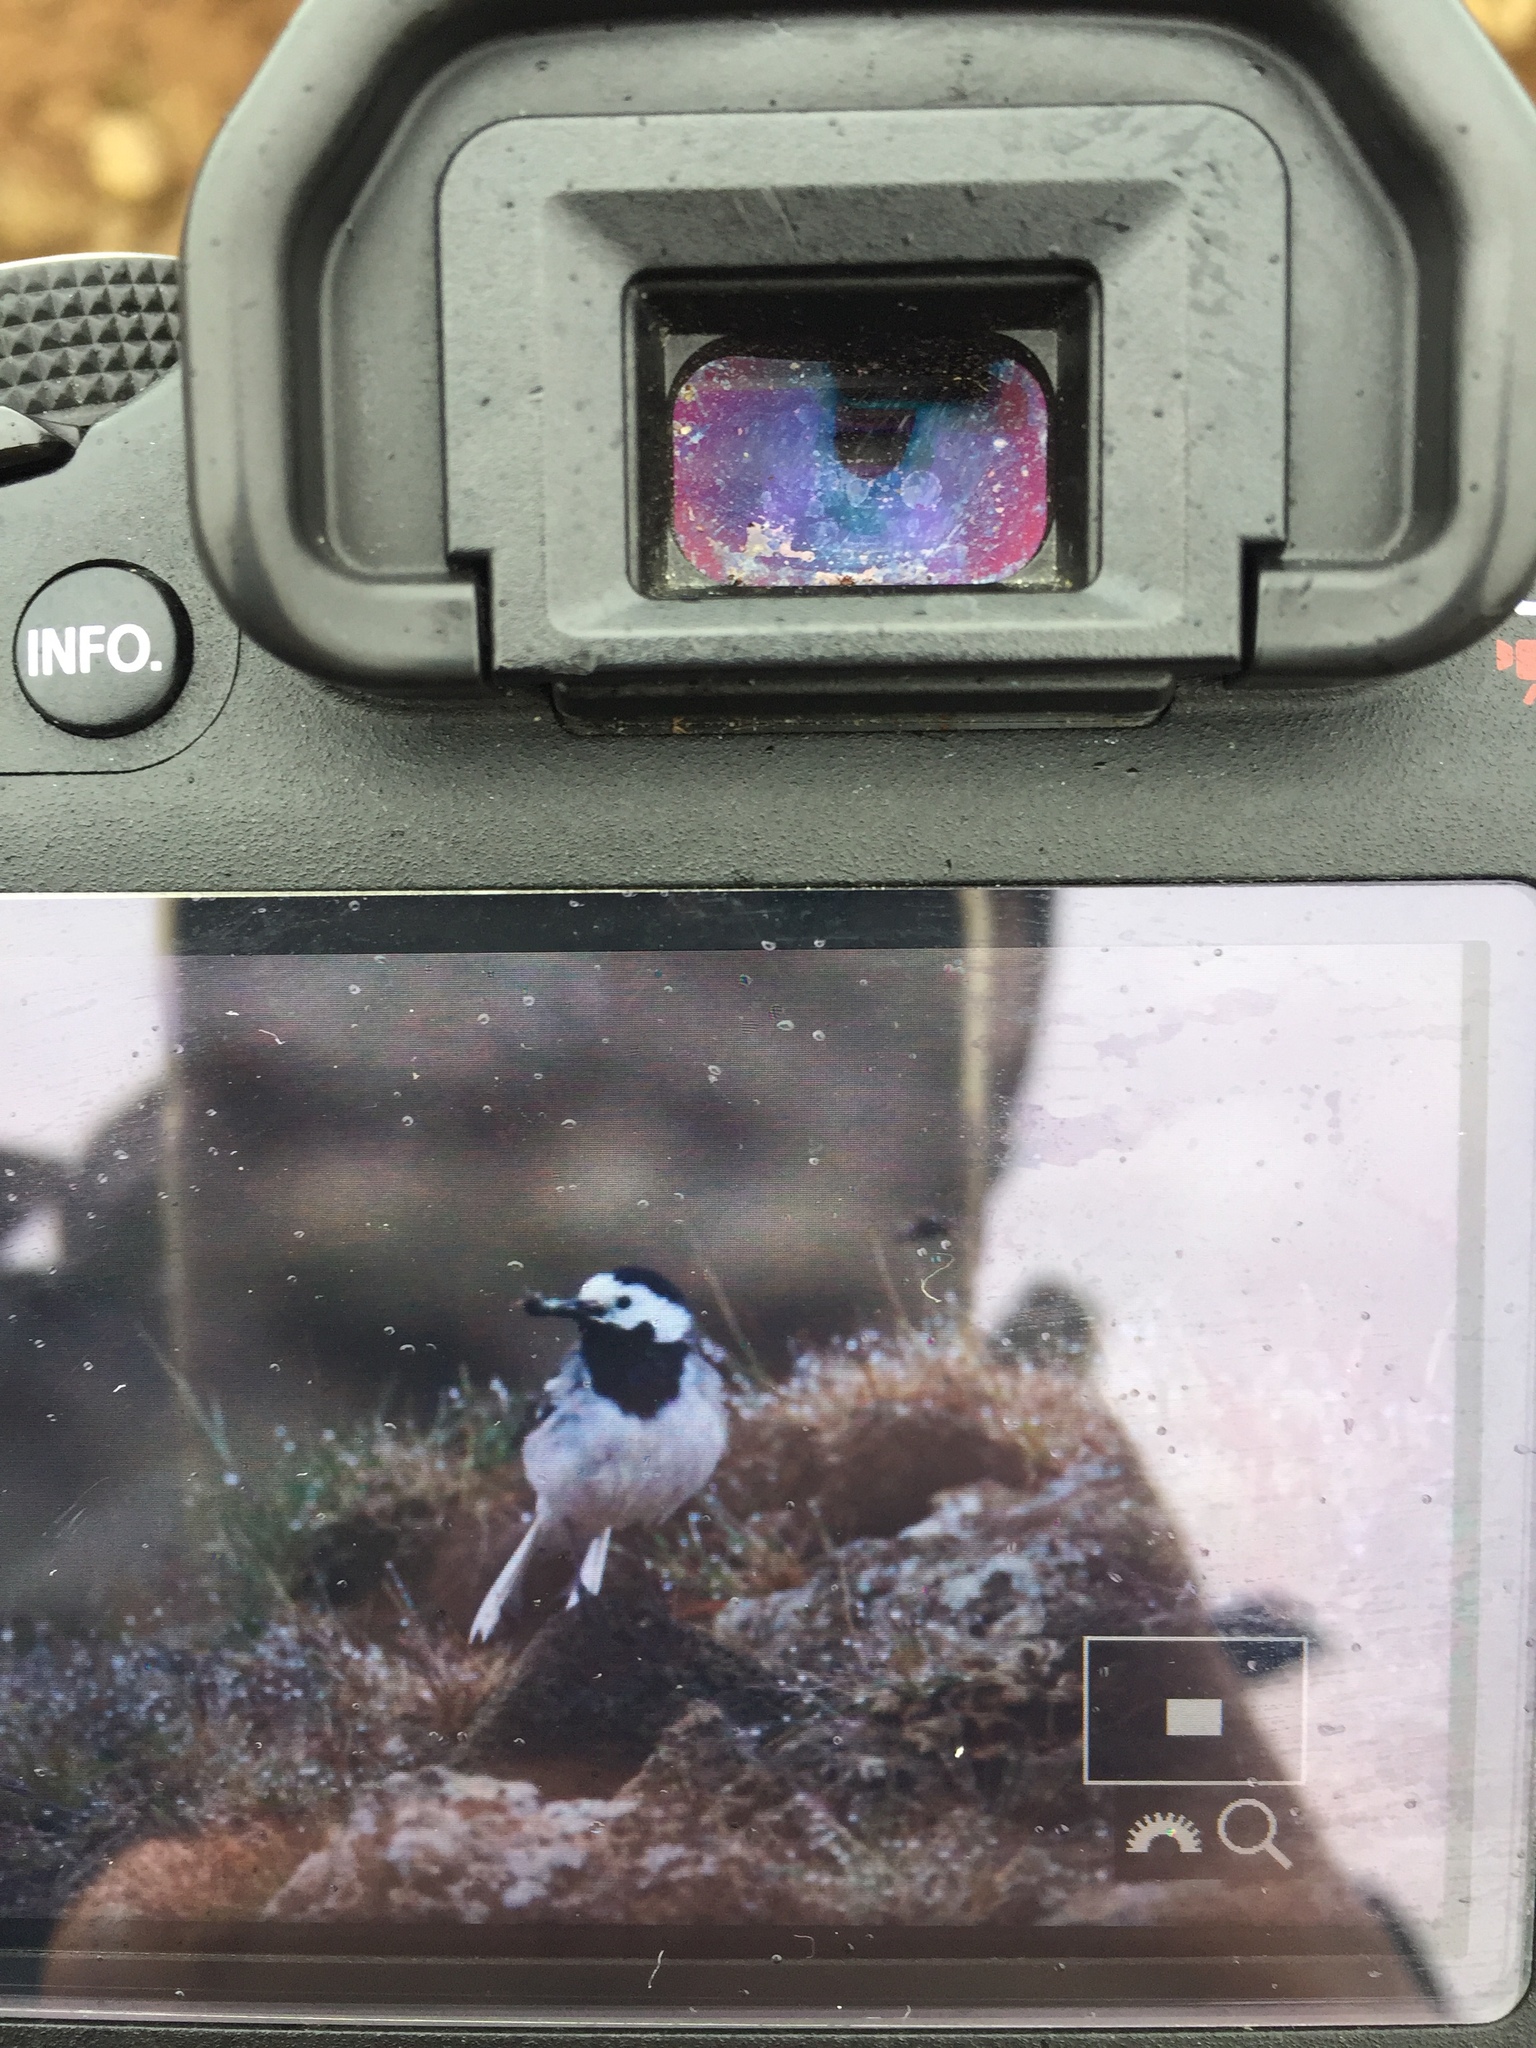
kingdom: Animalia
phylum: Chordata
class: Aves
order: Passeriformes
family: Motacillidae
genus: Motacilla
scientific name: Motacilla alba
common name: White wagtail
